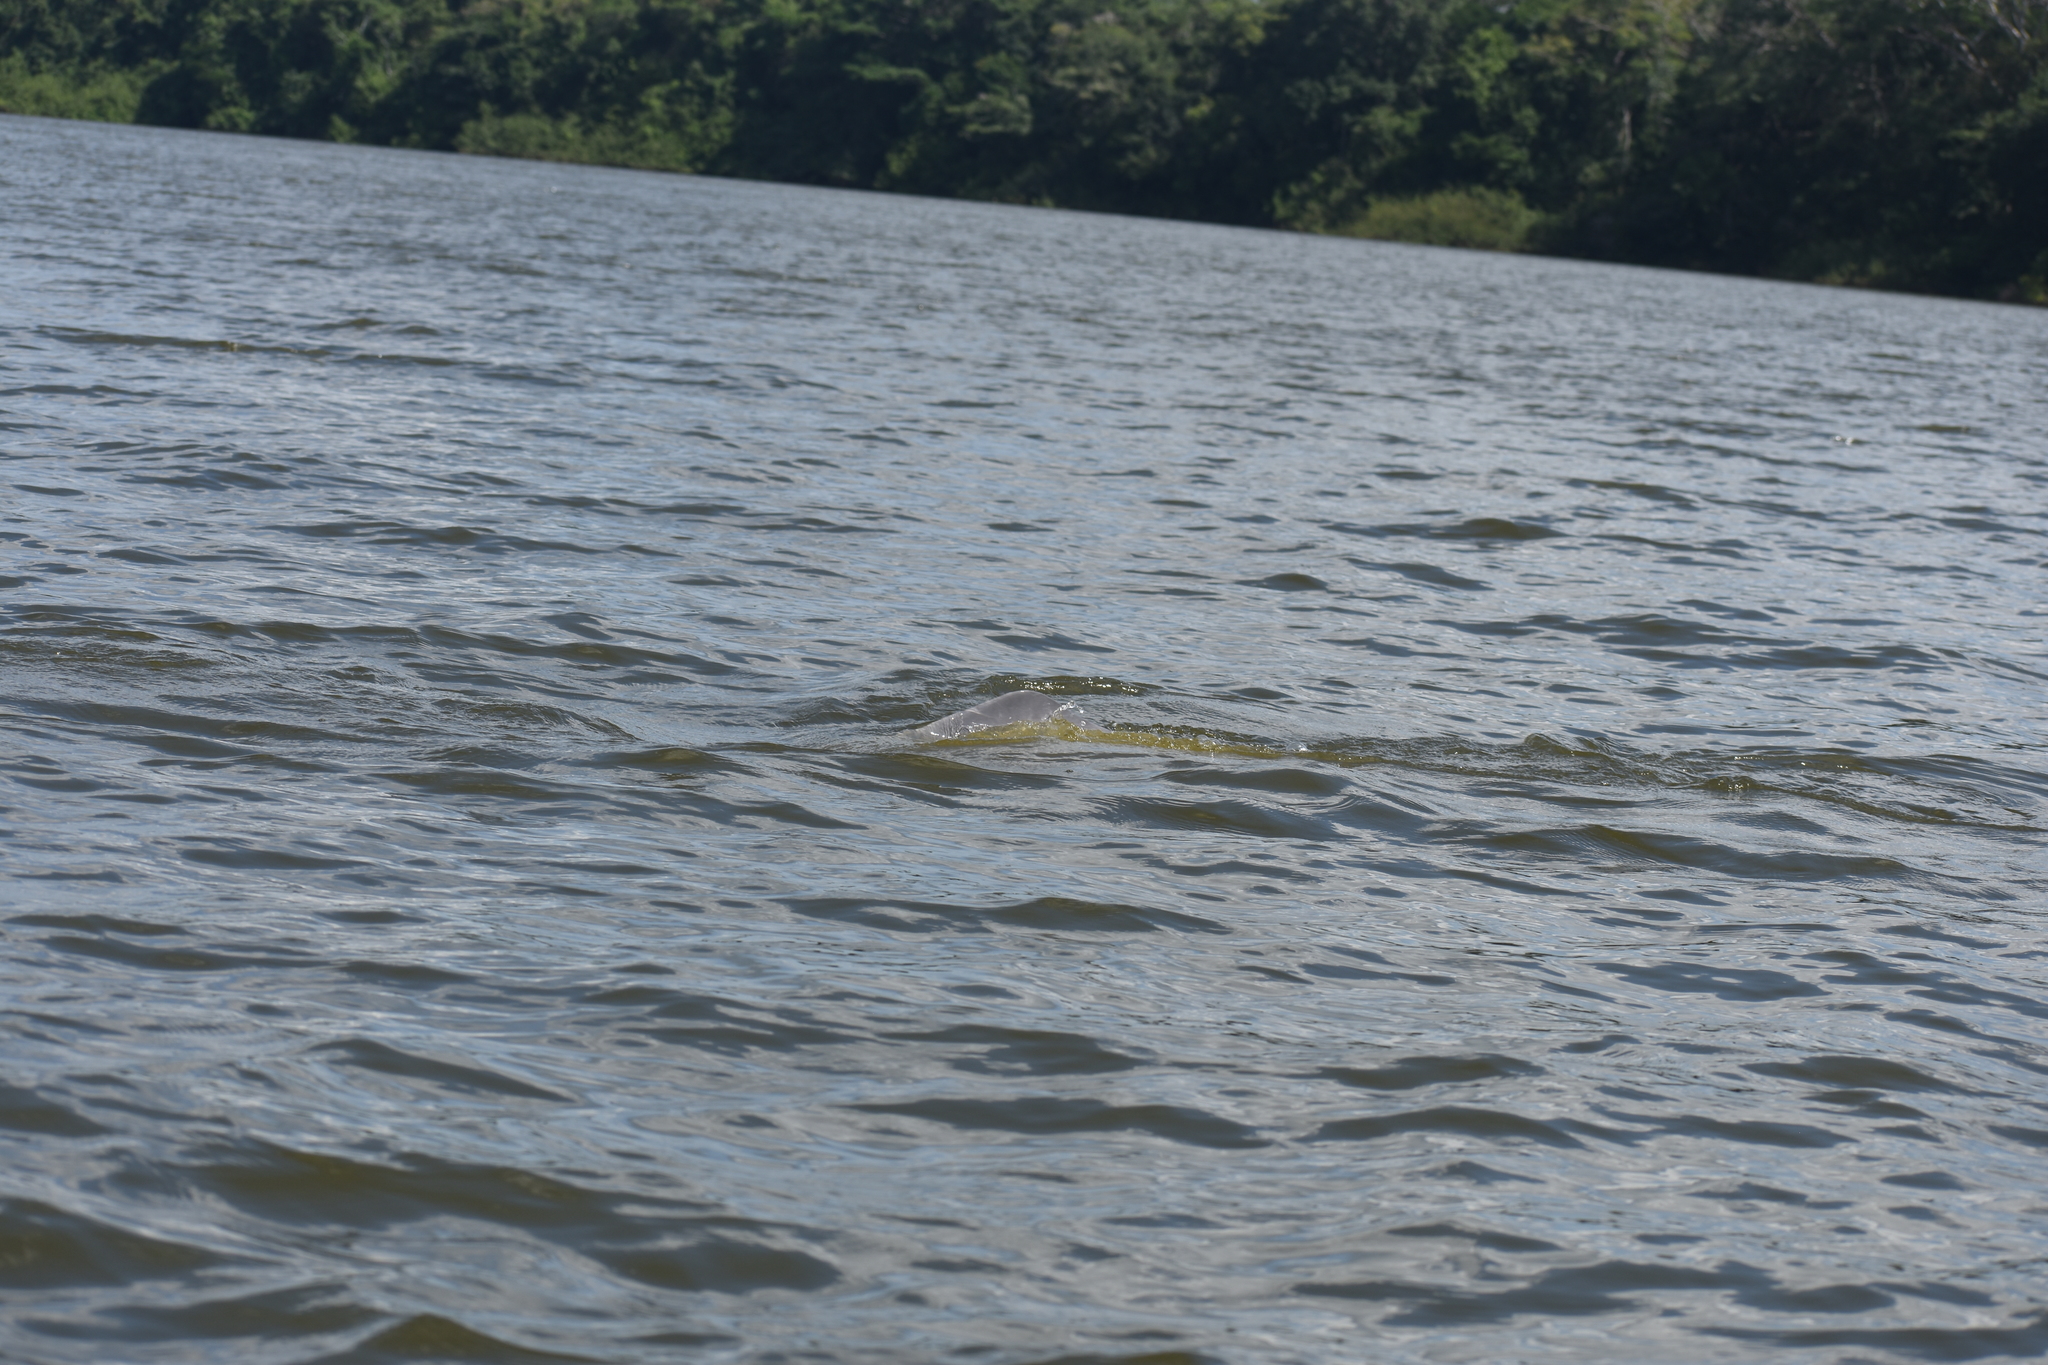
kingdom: Animalia
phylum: Chordata
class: Mammalia
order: Cetacea
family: Iniidae
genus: Inia
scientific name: Inia geoffrensis
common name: Amazon river dolphin
